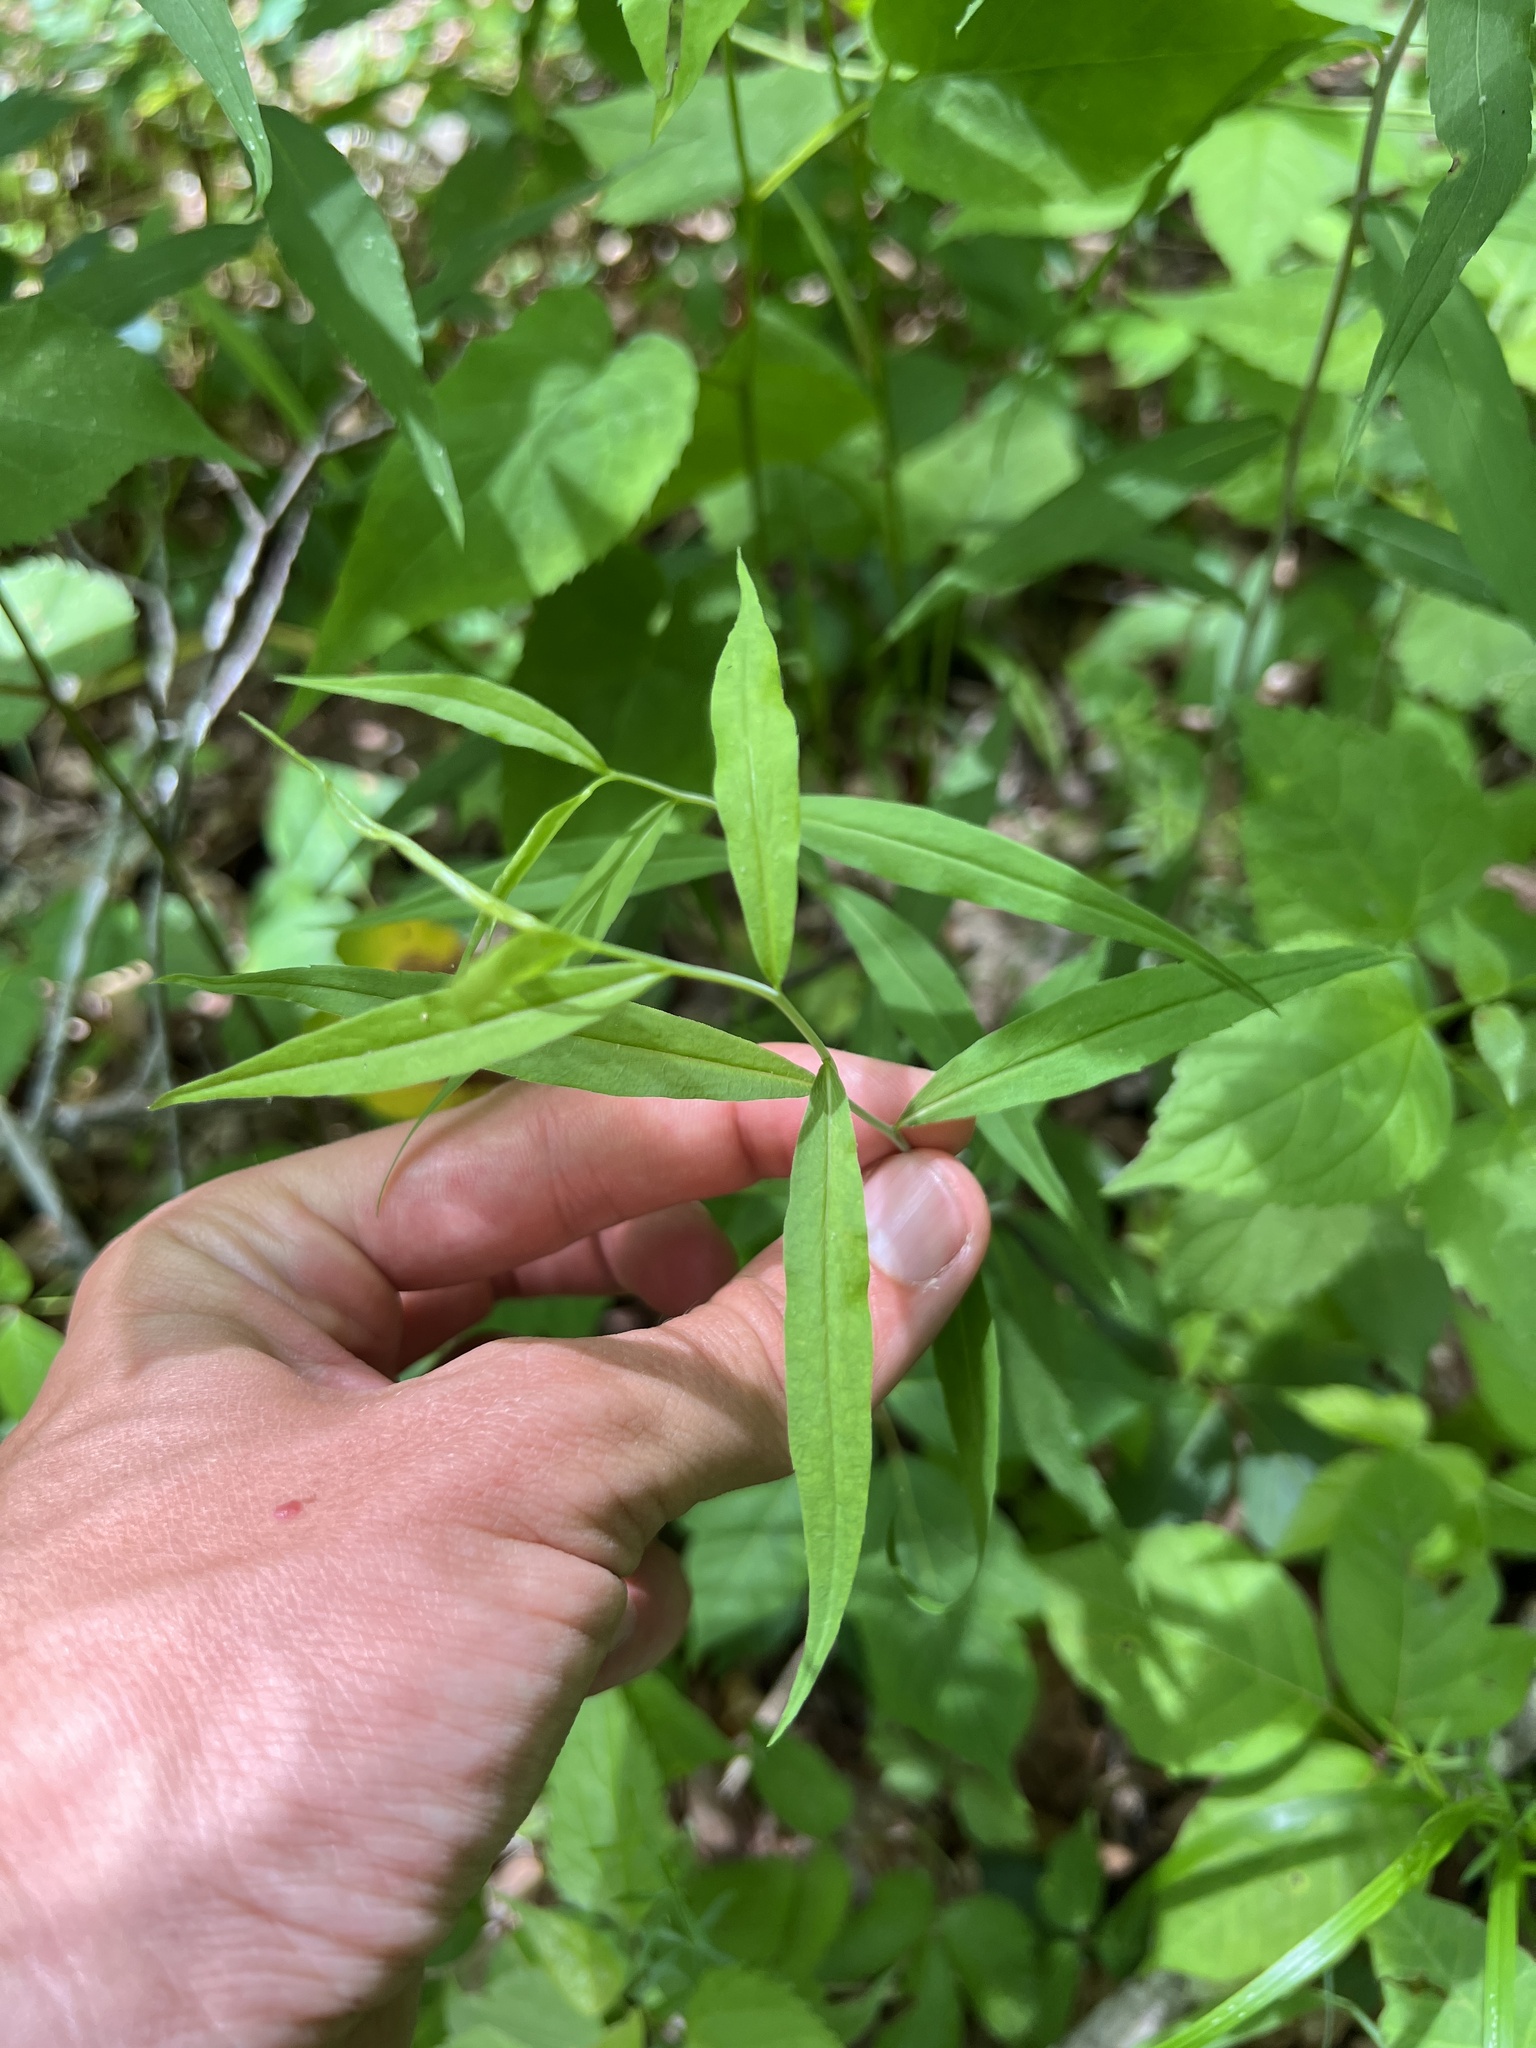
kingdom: Plantae
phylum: Tracheophyta
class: Magnoliopsida
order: Asterales
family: Asteraceae
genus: Solidago
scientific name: Solidago caesia
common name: Woodland goldenrod
